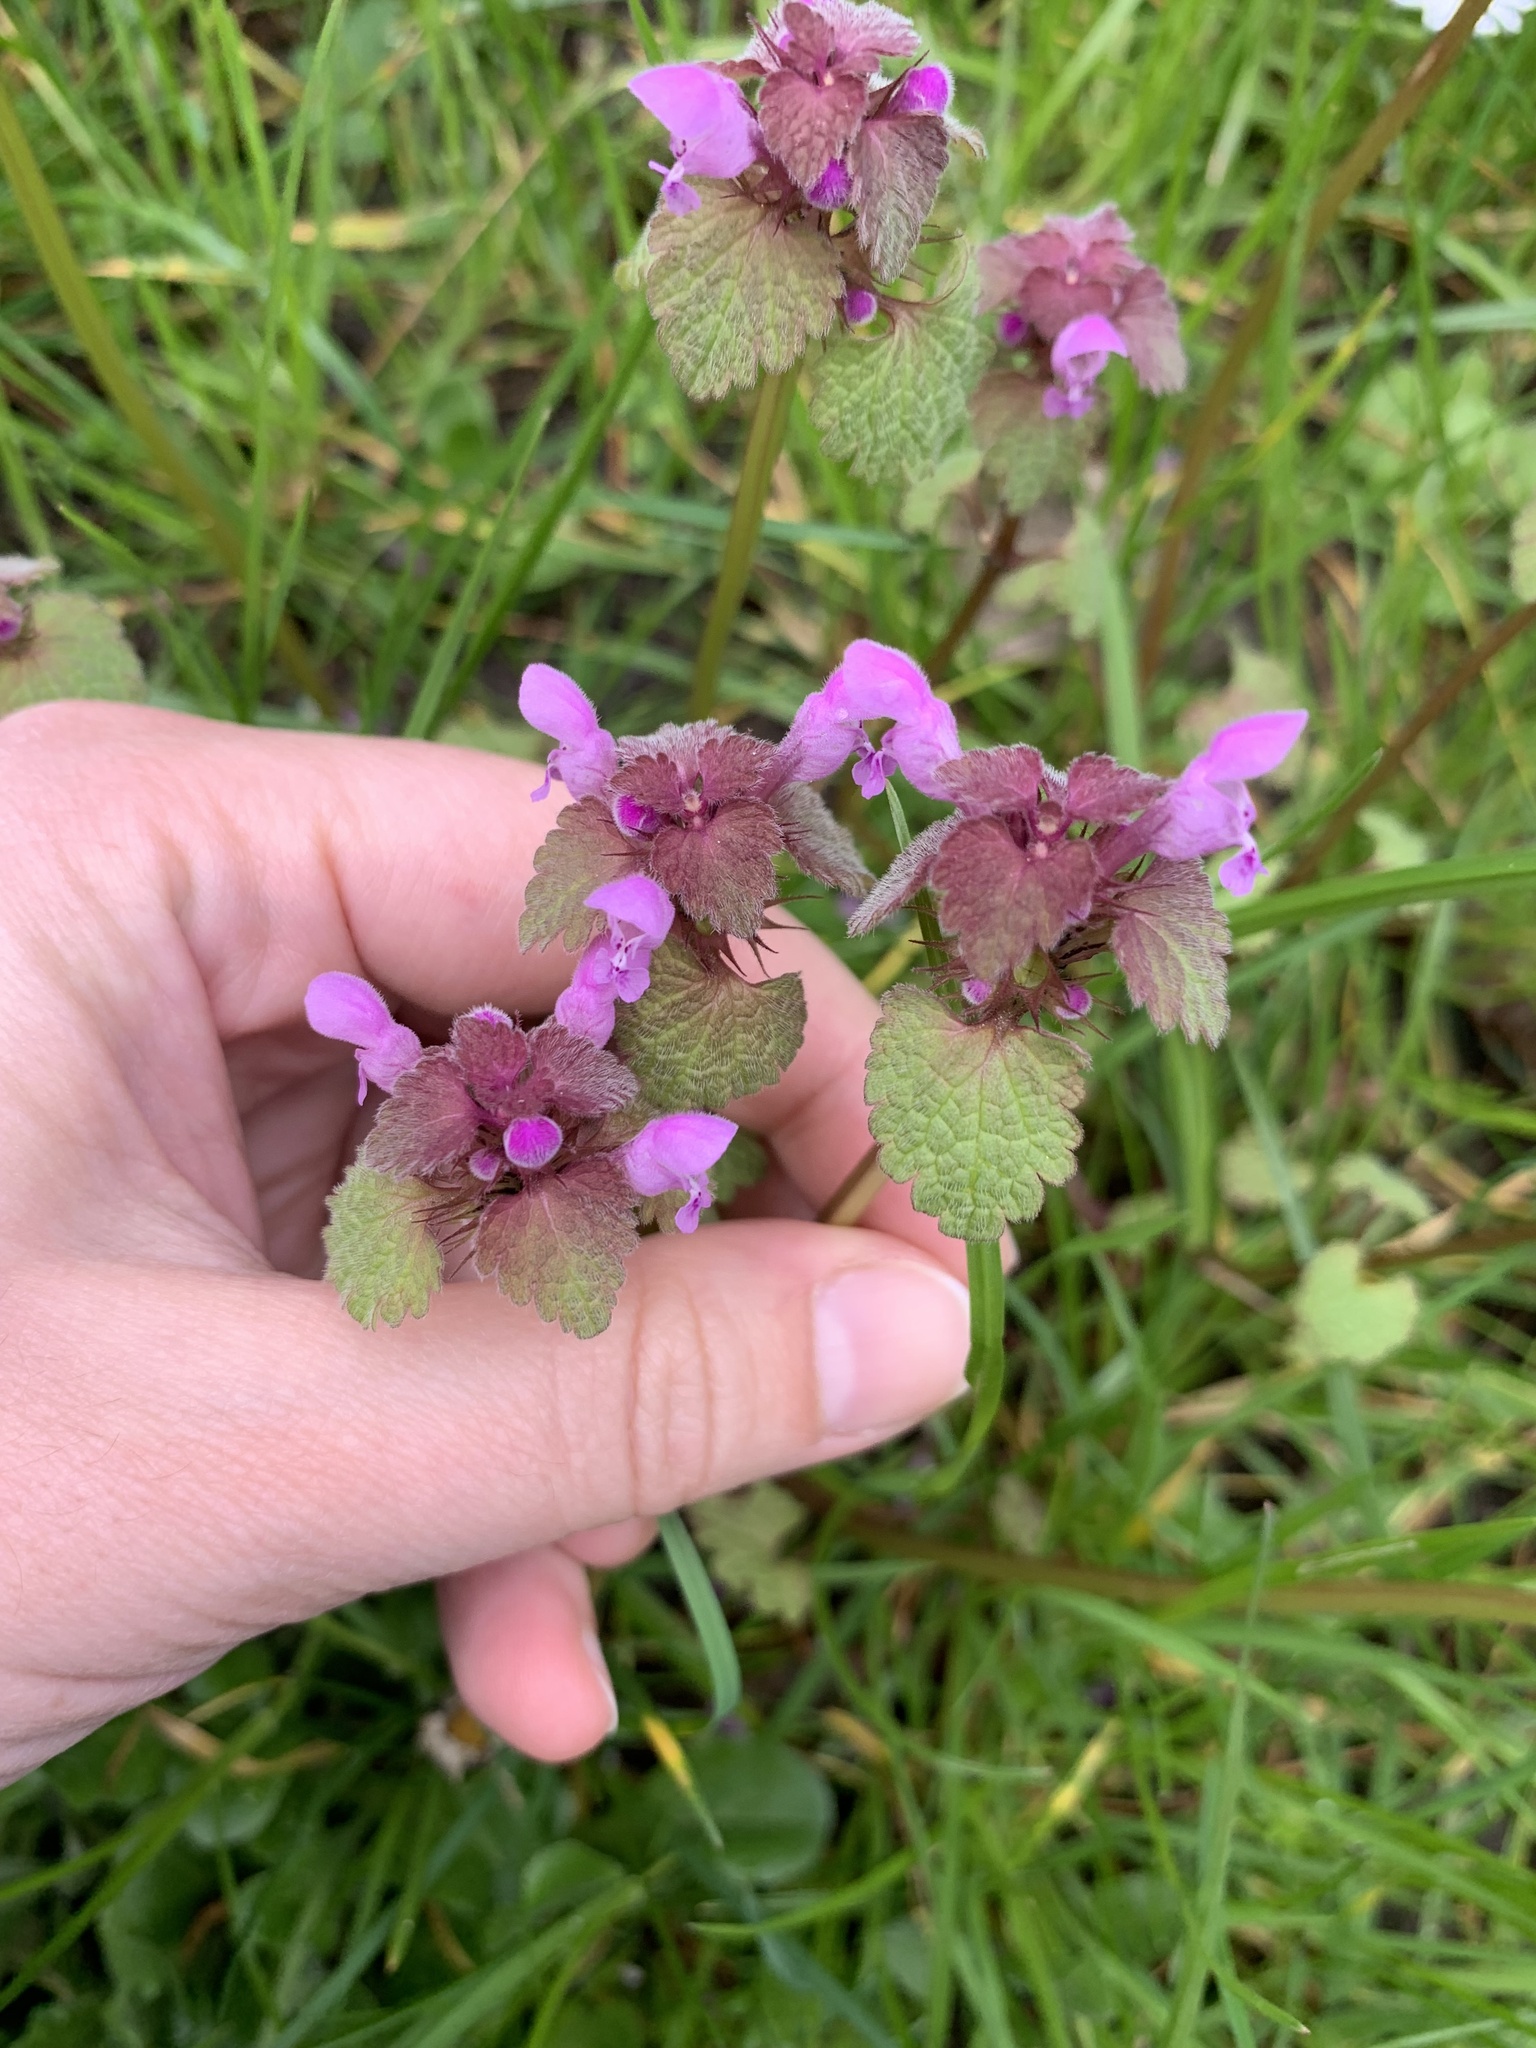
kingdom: Plantae
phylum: Tracheophyta
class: Magnoliopsida
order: Lamiales
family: Lamiaceae
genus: Lamium
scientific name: Lamium purpureum
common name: Red dead-nettle
